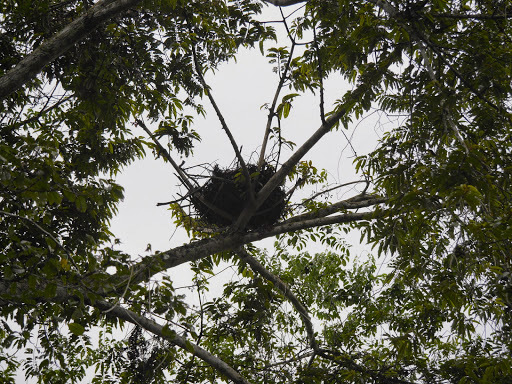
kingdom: Animalia
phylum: Chordata
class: Mammalia
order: Primates
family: Hominidae
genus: Pan
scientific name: Pan troglodytes
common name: Chimpanzee
